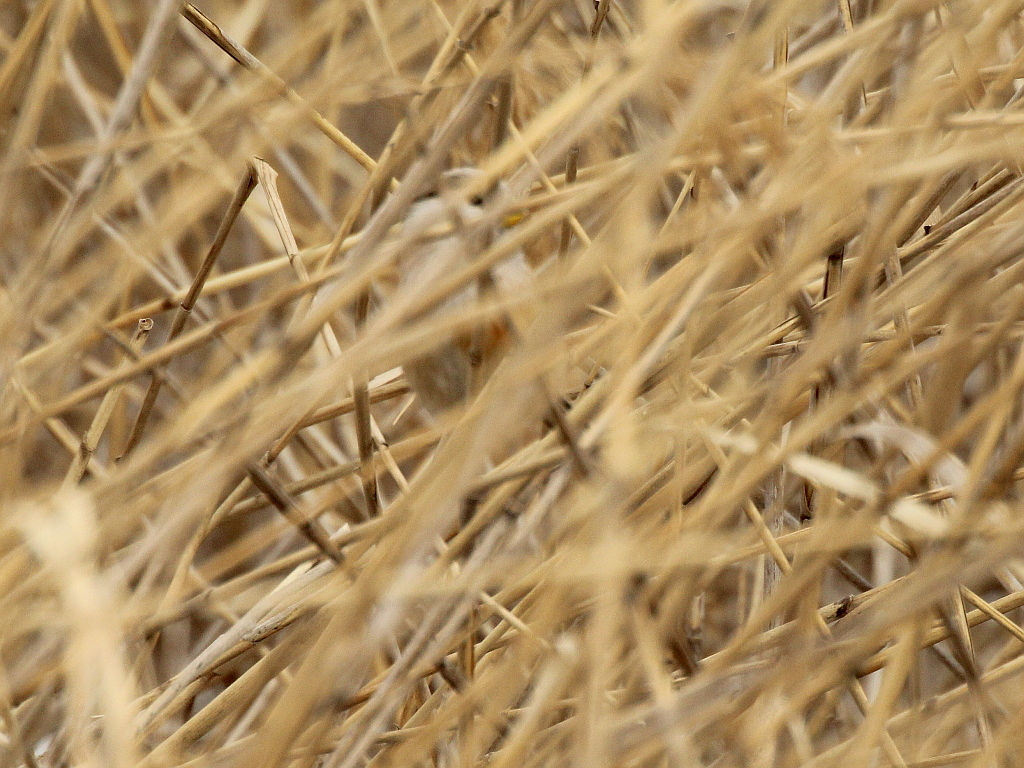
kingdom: Animalia
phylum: Chordata
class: Aves
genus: Calamornis
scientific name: Calamornis
